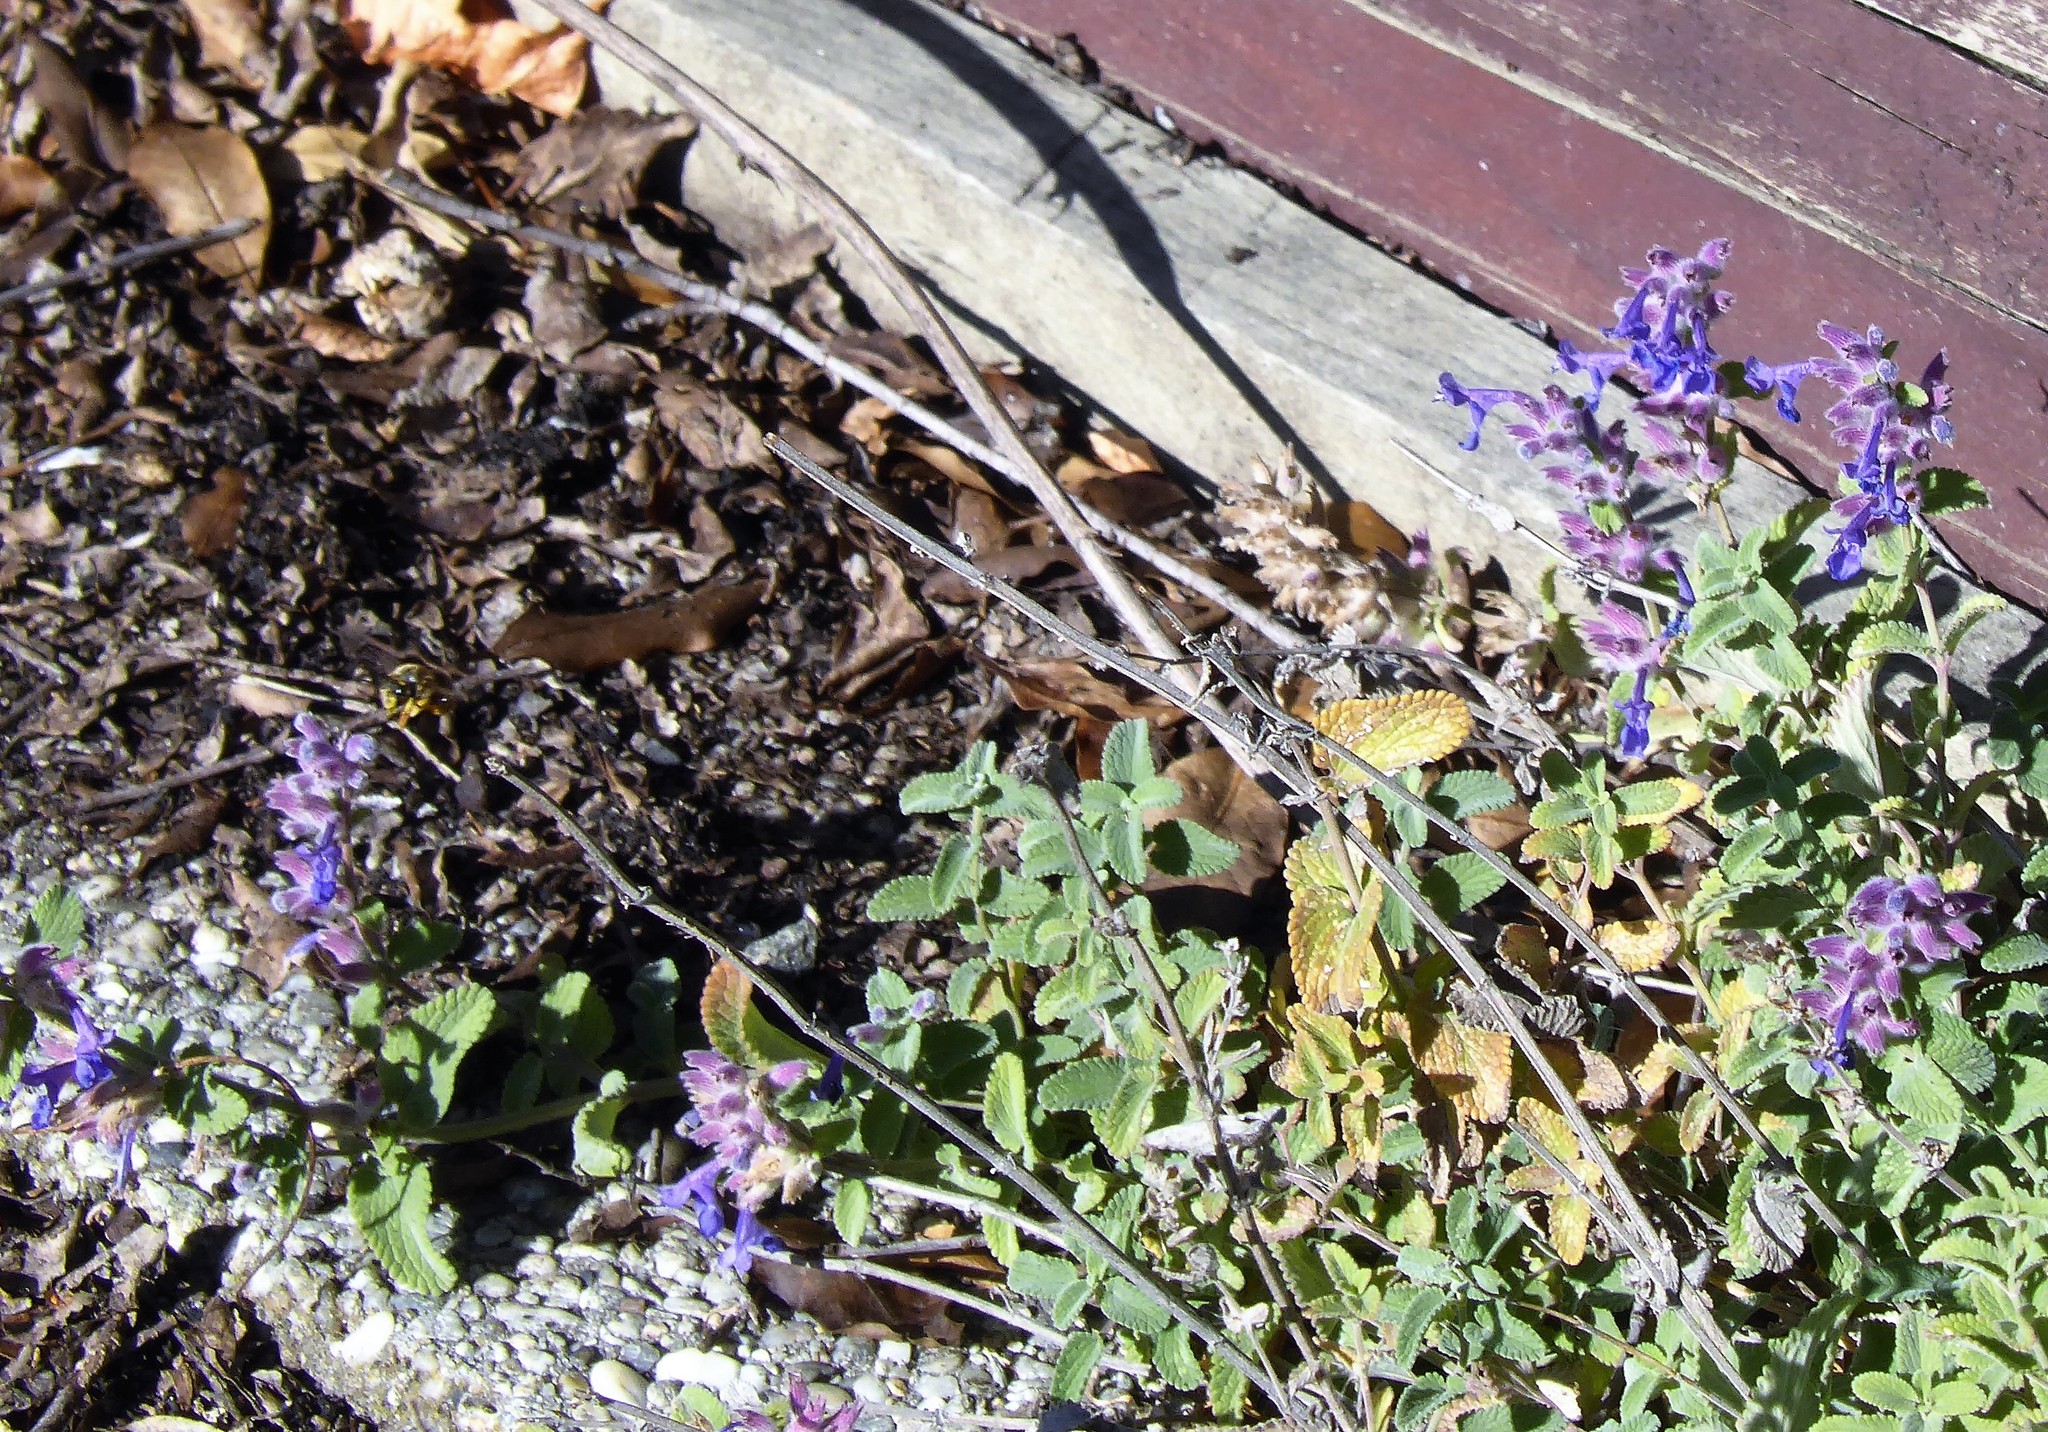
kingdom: Animalia
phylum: Arthropoda
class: Insecta
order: Hymenoptera
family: Megachilidae
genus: Anthidium
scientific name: Anthidium manicatum
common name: Wool carder bee
